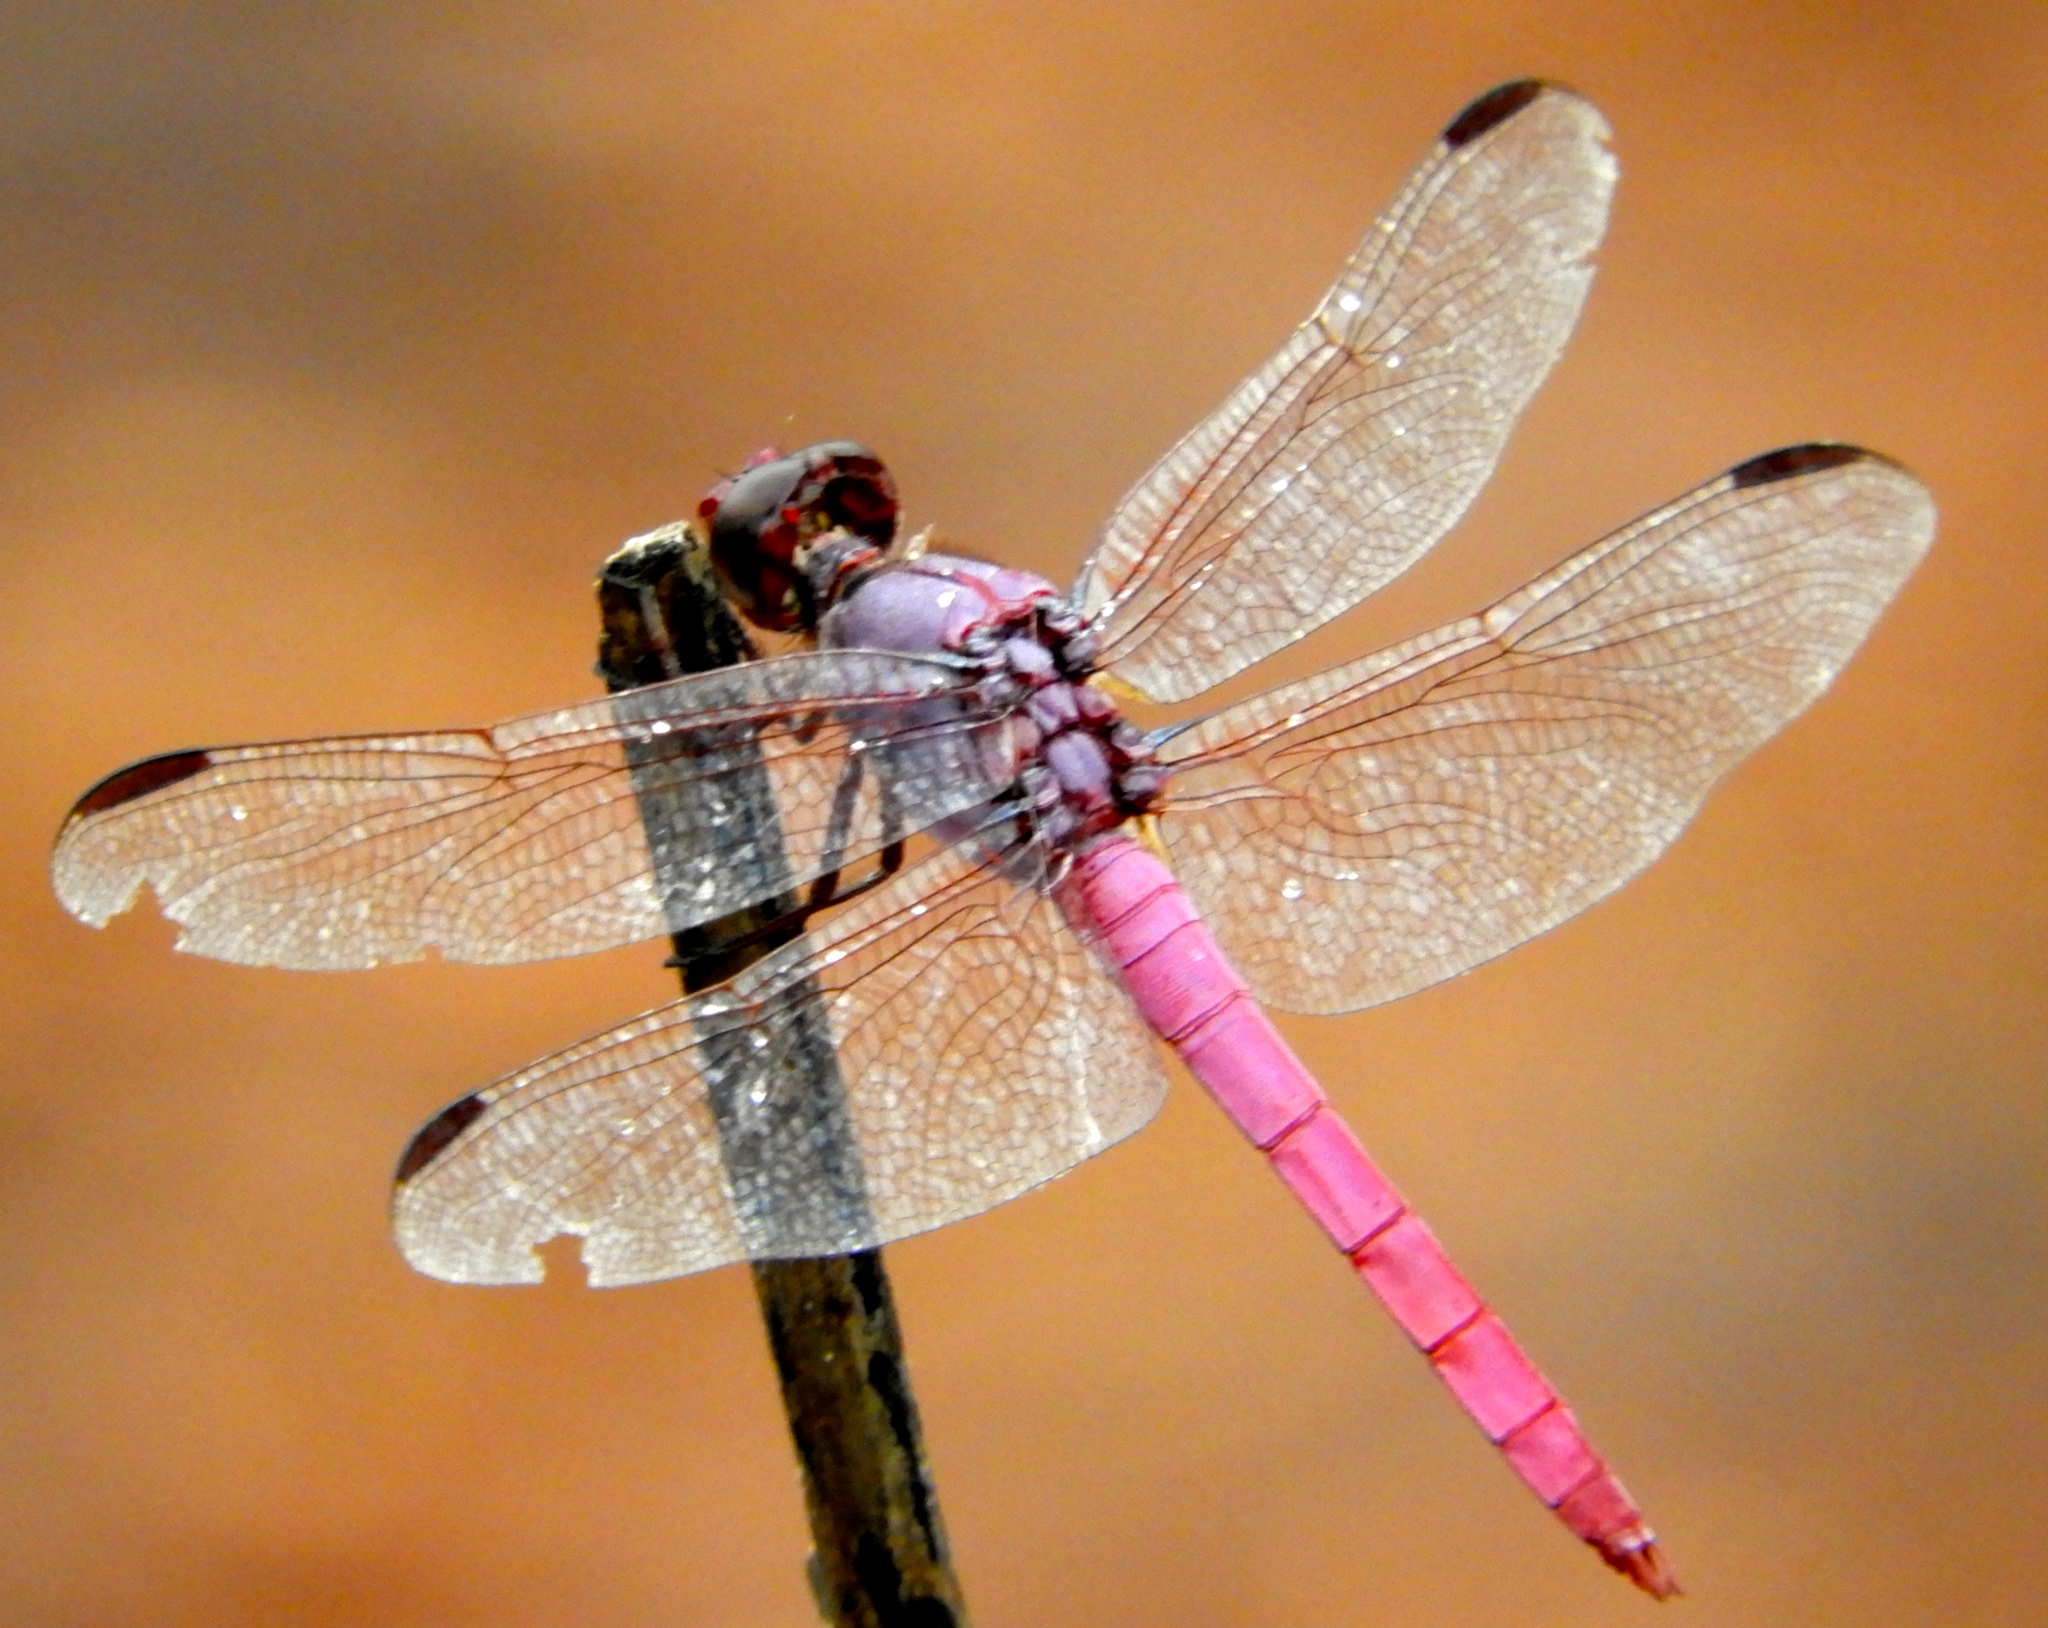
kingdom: Animalia
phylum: Arthropoda
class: Insecta
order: Odonata
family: Libellulidae
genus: Orthemis
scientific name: Orthemis ferruginea
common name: Roseate skimmer
